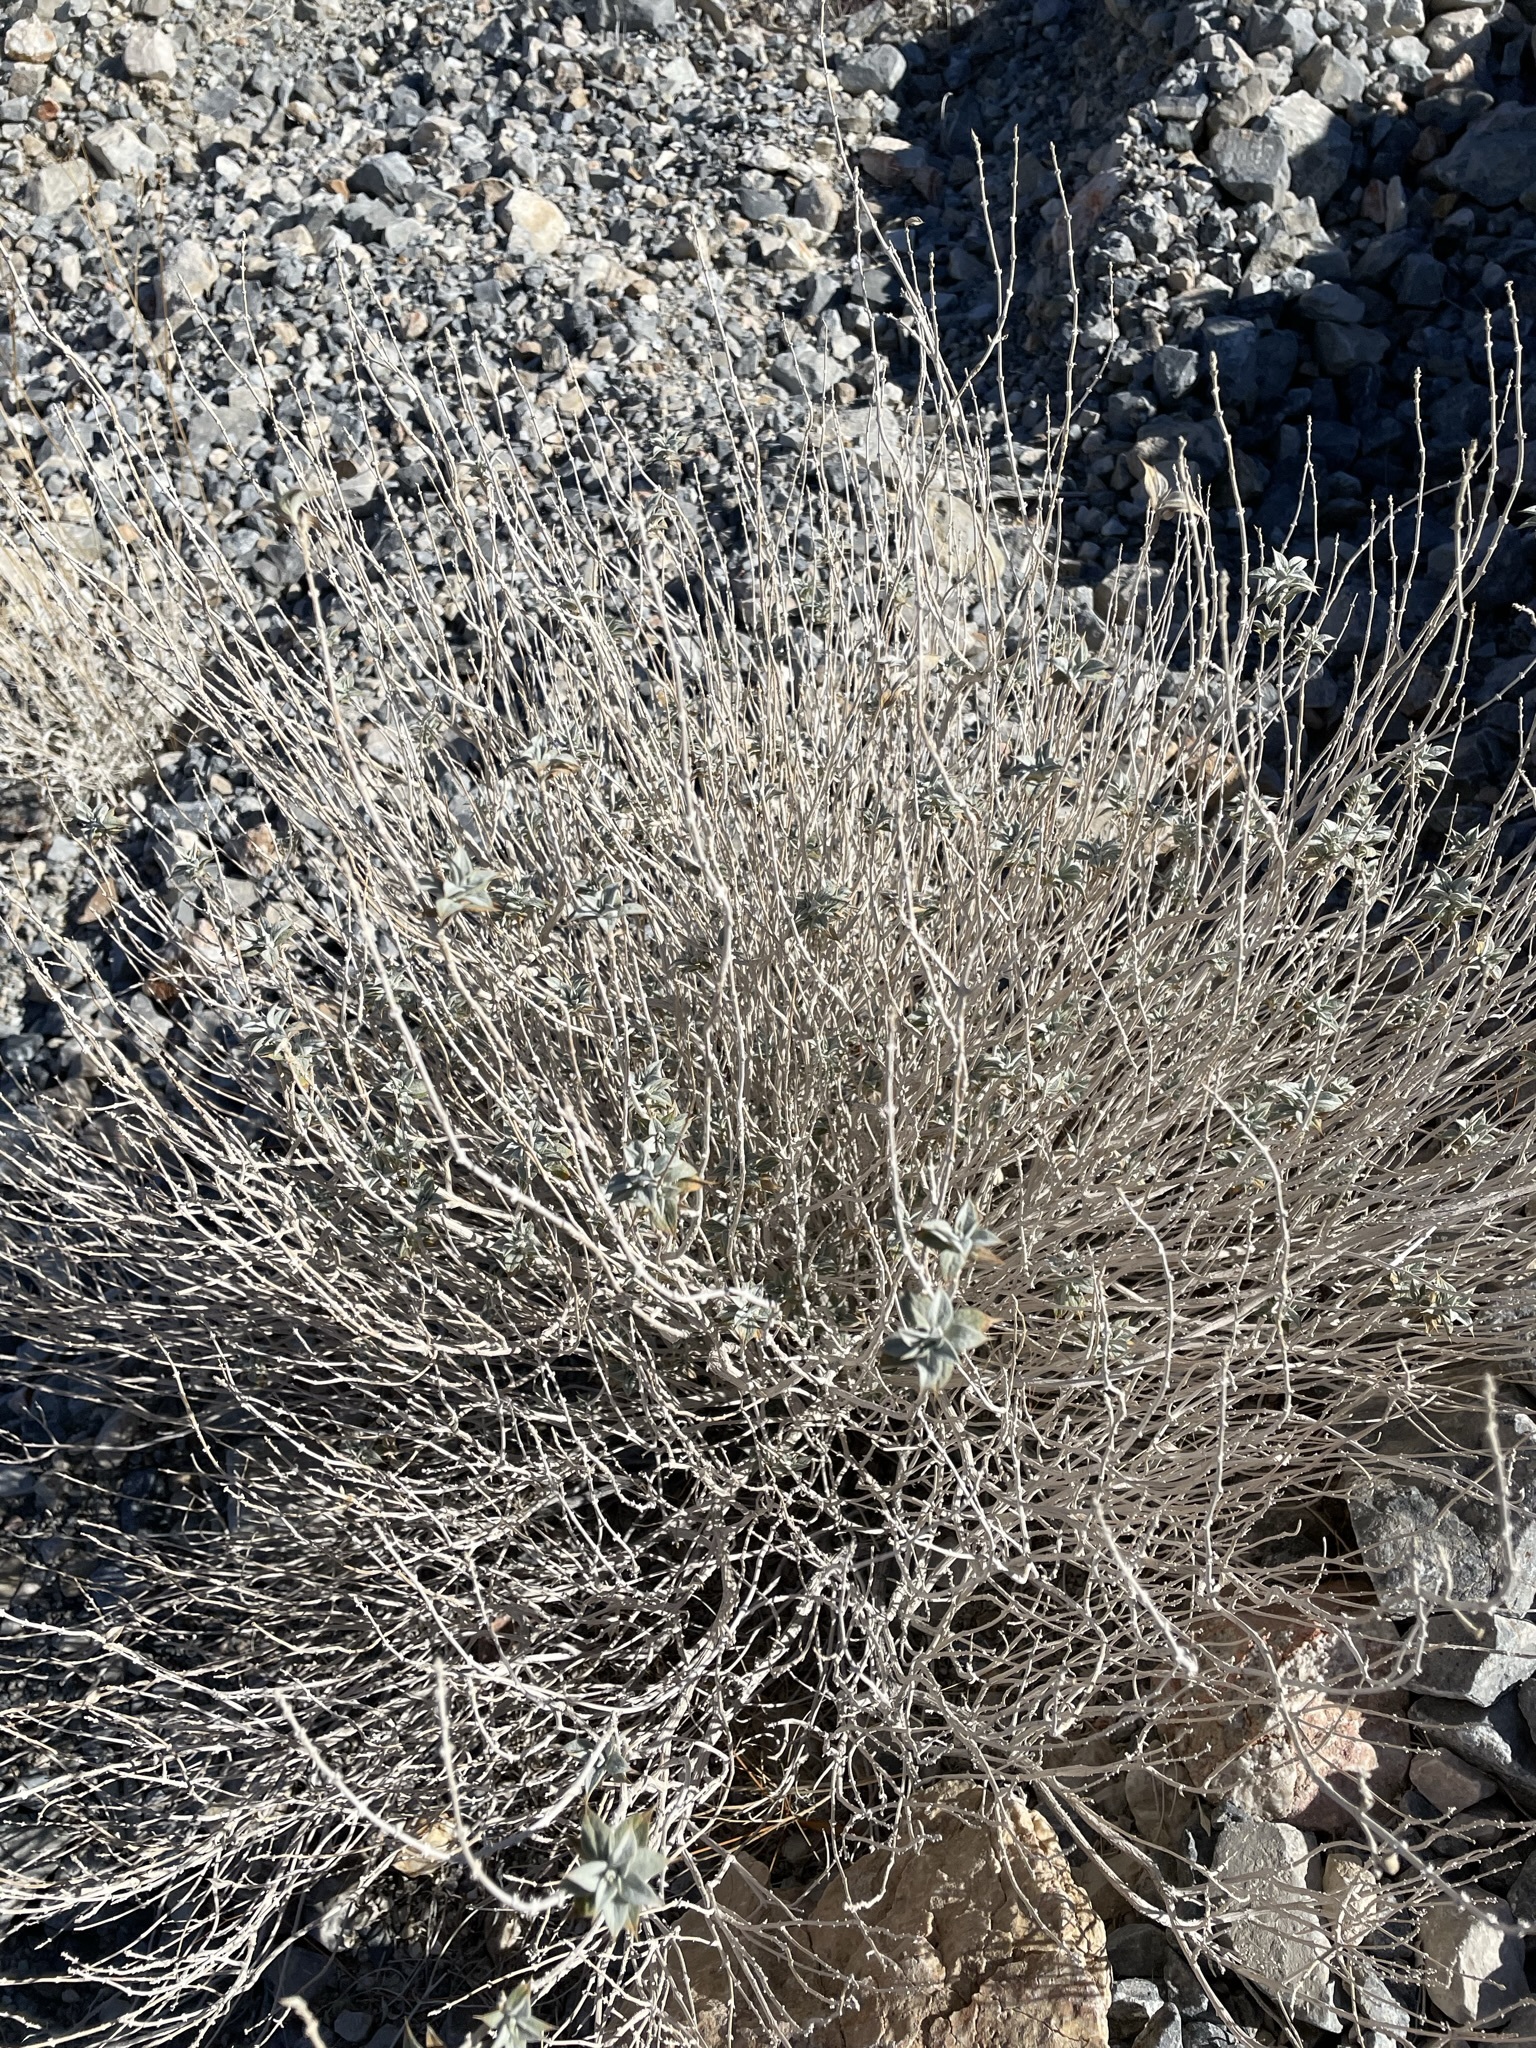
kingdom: Plantae
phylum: Tracheophyta
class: Magnoliopsida
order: Lamiales
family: Lamiaceae
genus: Salvia
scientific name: Salvia funerea
